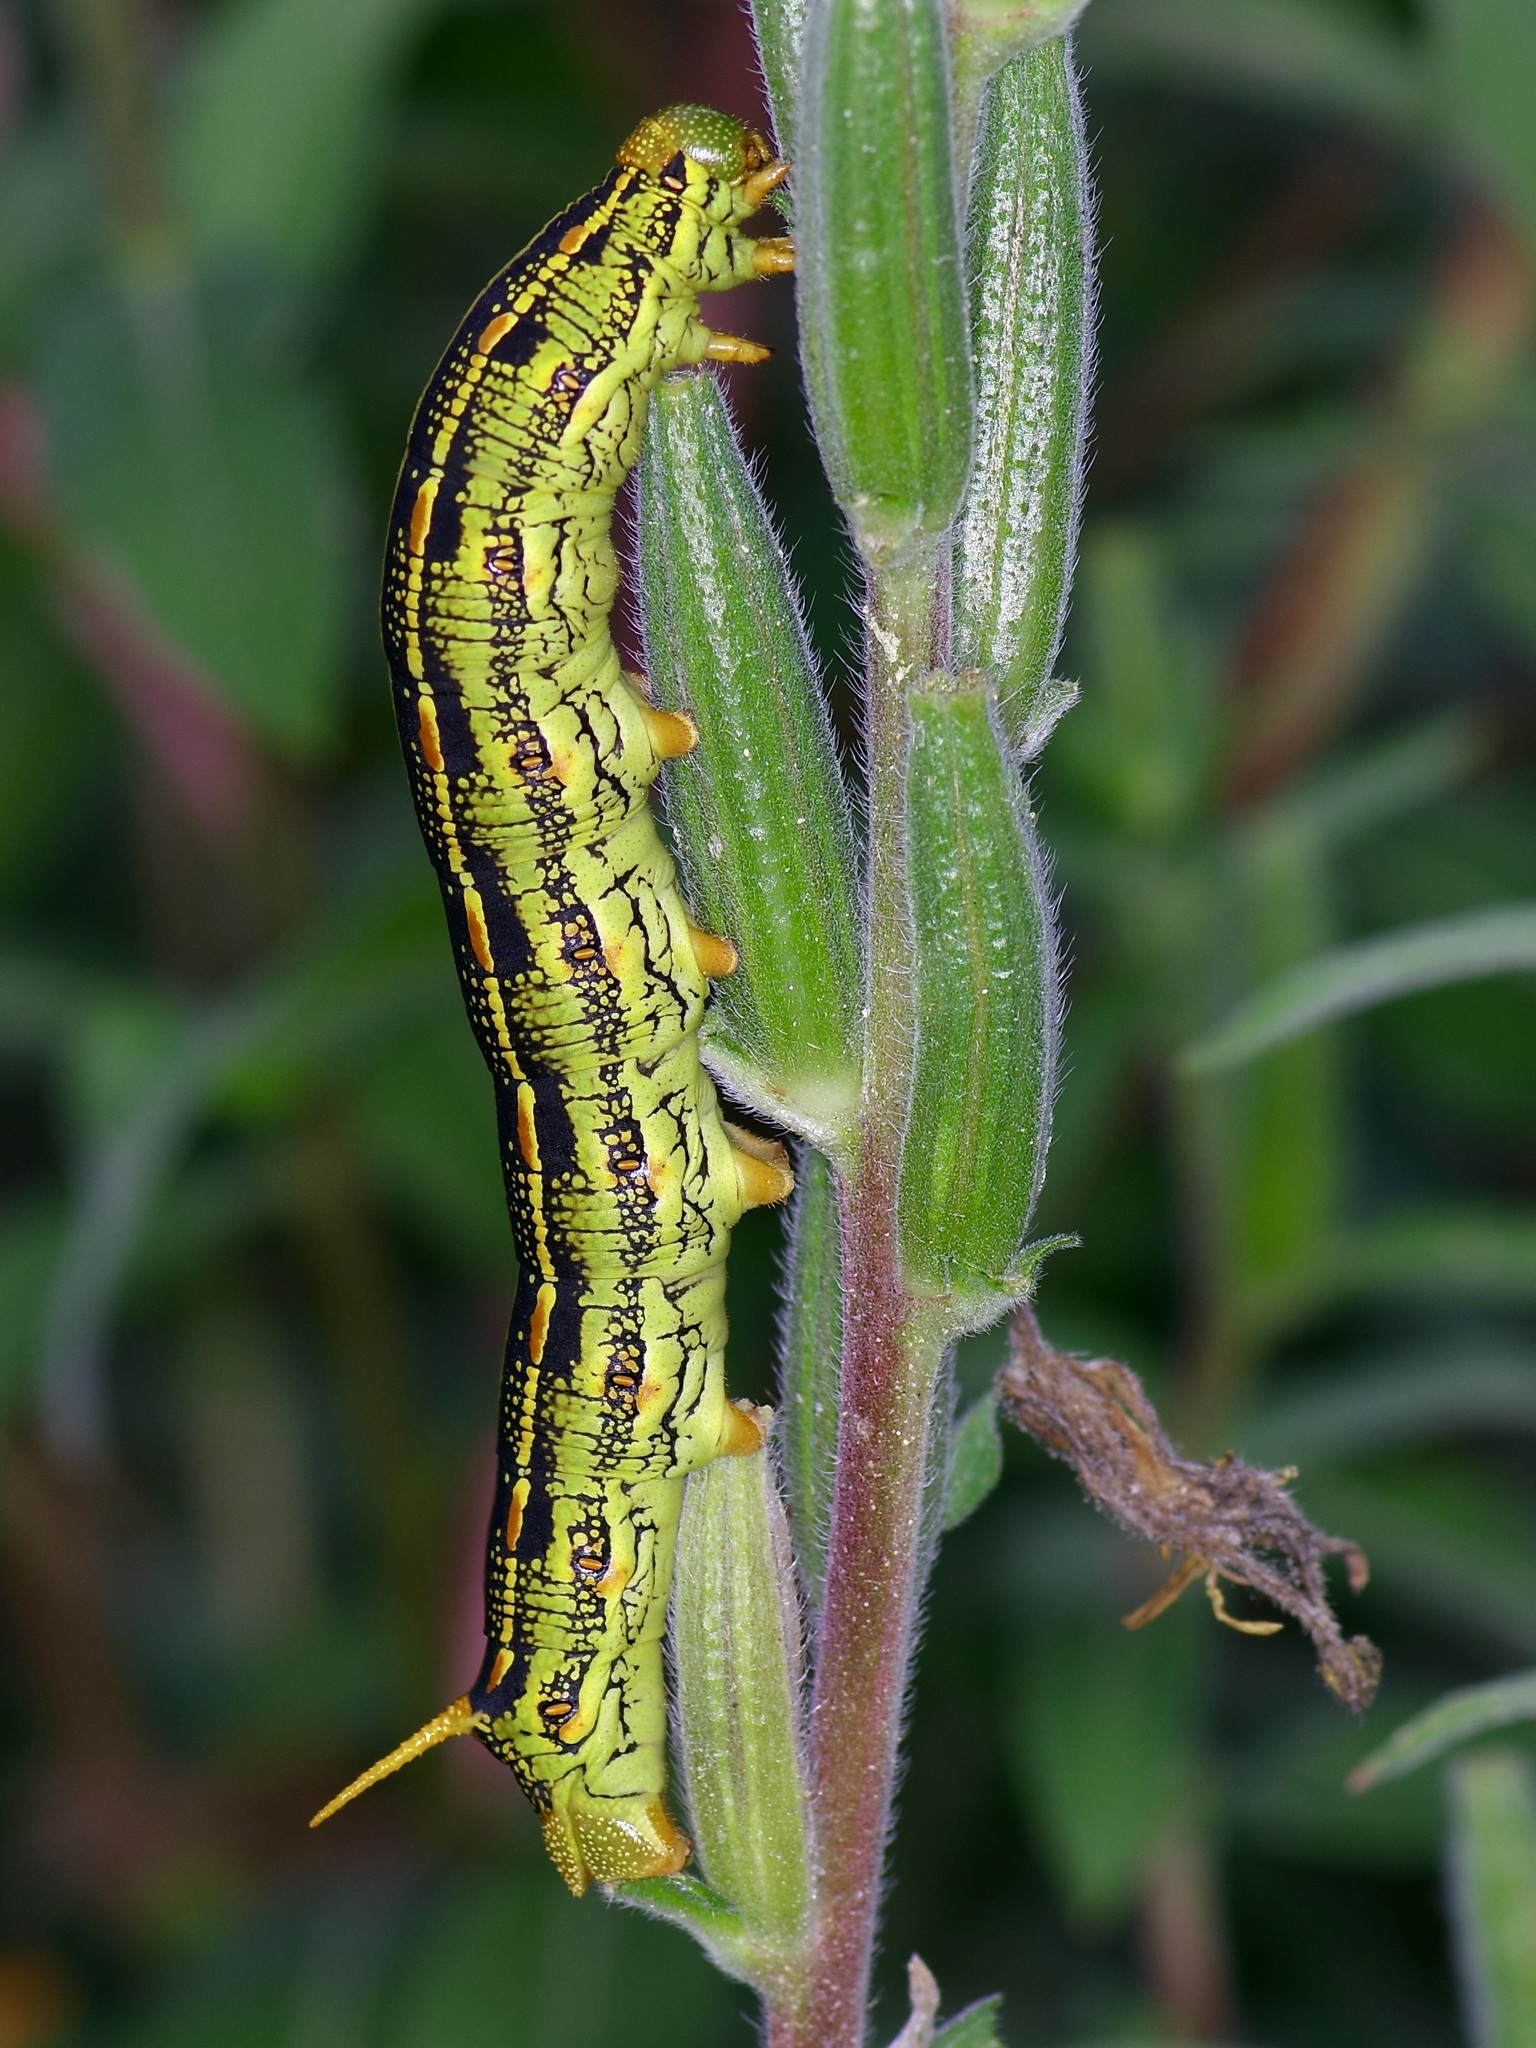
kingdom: Animalia
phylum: Arthropoda
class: Insecta
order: Lepidoptera
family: Sphingidae
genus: Hyles
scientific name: Hyles lineata
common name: White-lined sphinx
